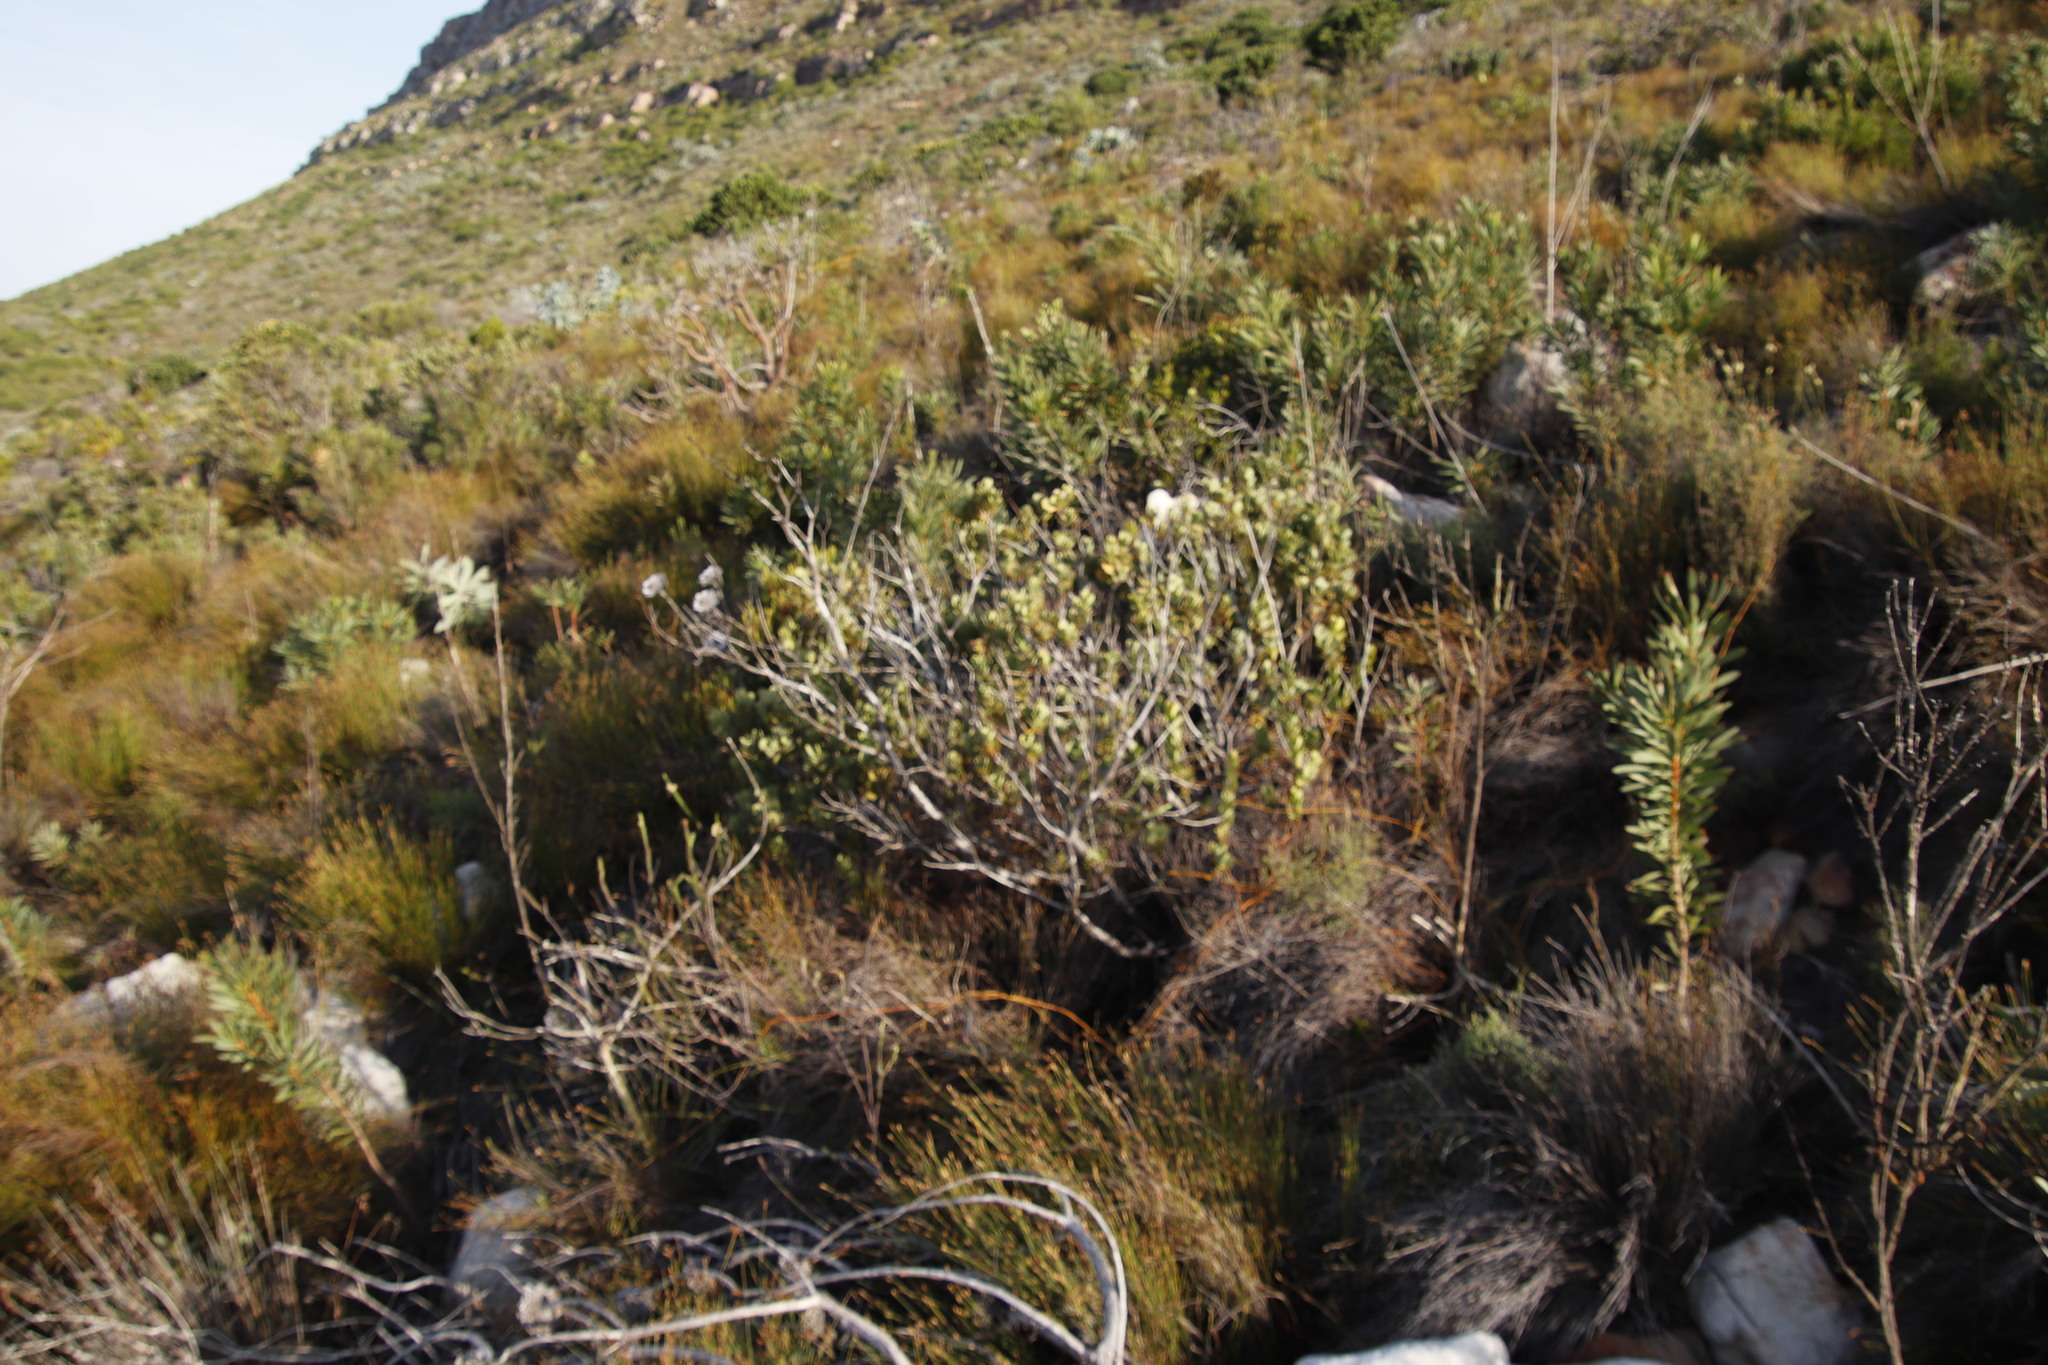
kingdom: Plantae
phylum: Tracheophyta
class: Magnoliopsida
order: Santalales
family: Santalaceae
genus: Osyris
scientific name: Osyris compressa
